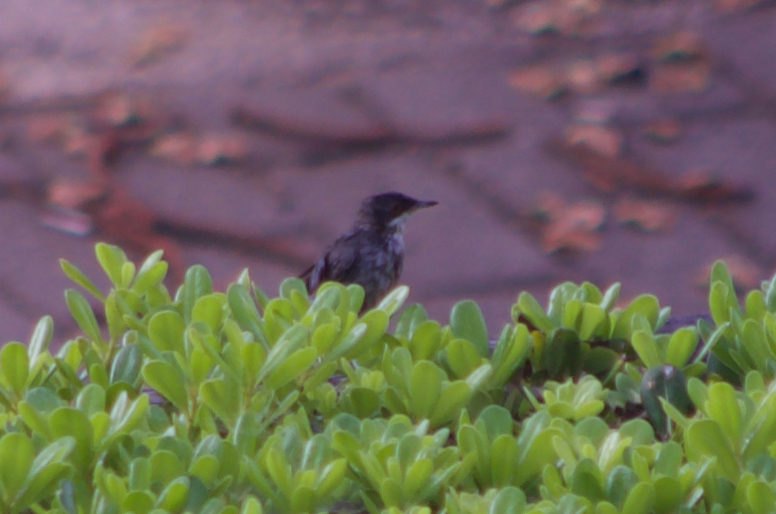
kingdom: Animalia
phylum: Chordata
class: Aves
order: Passeriformes
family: Sylviidae
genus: Curruca
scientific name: Curruca melanocephala
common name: Sardinian warbler
